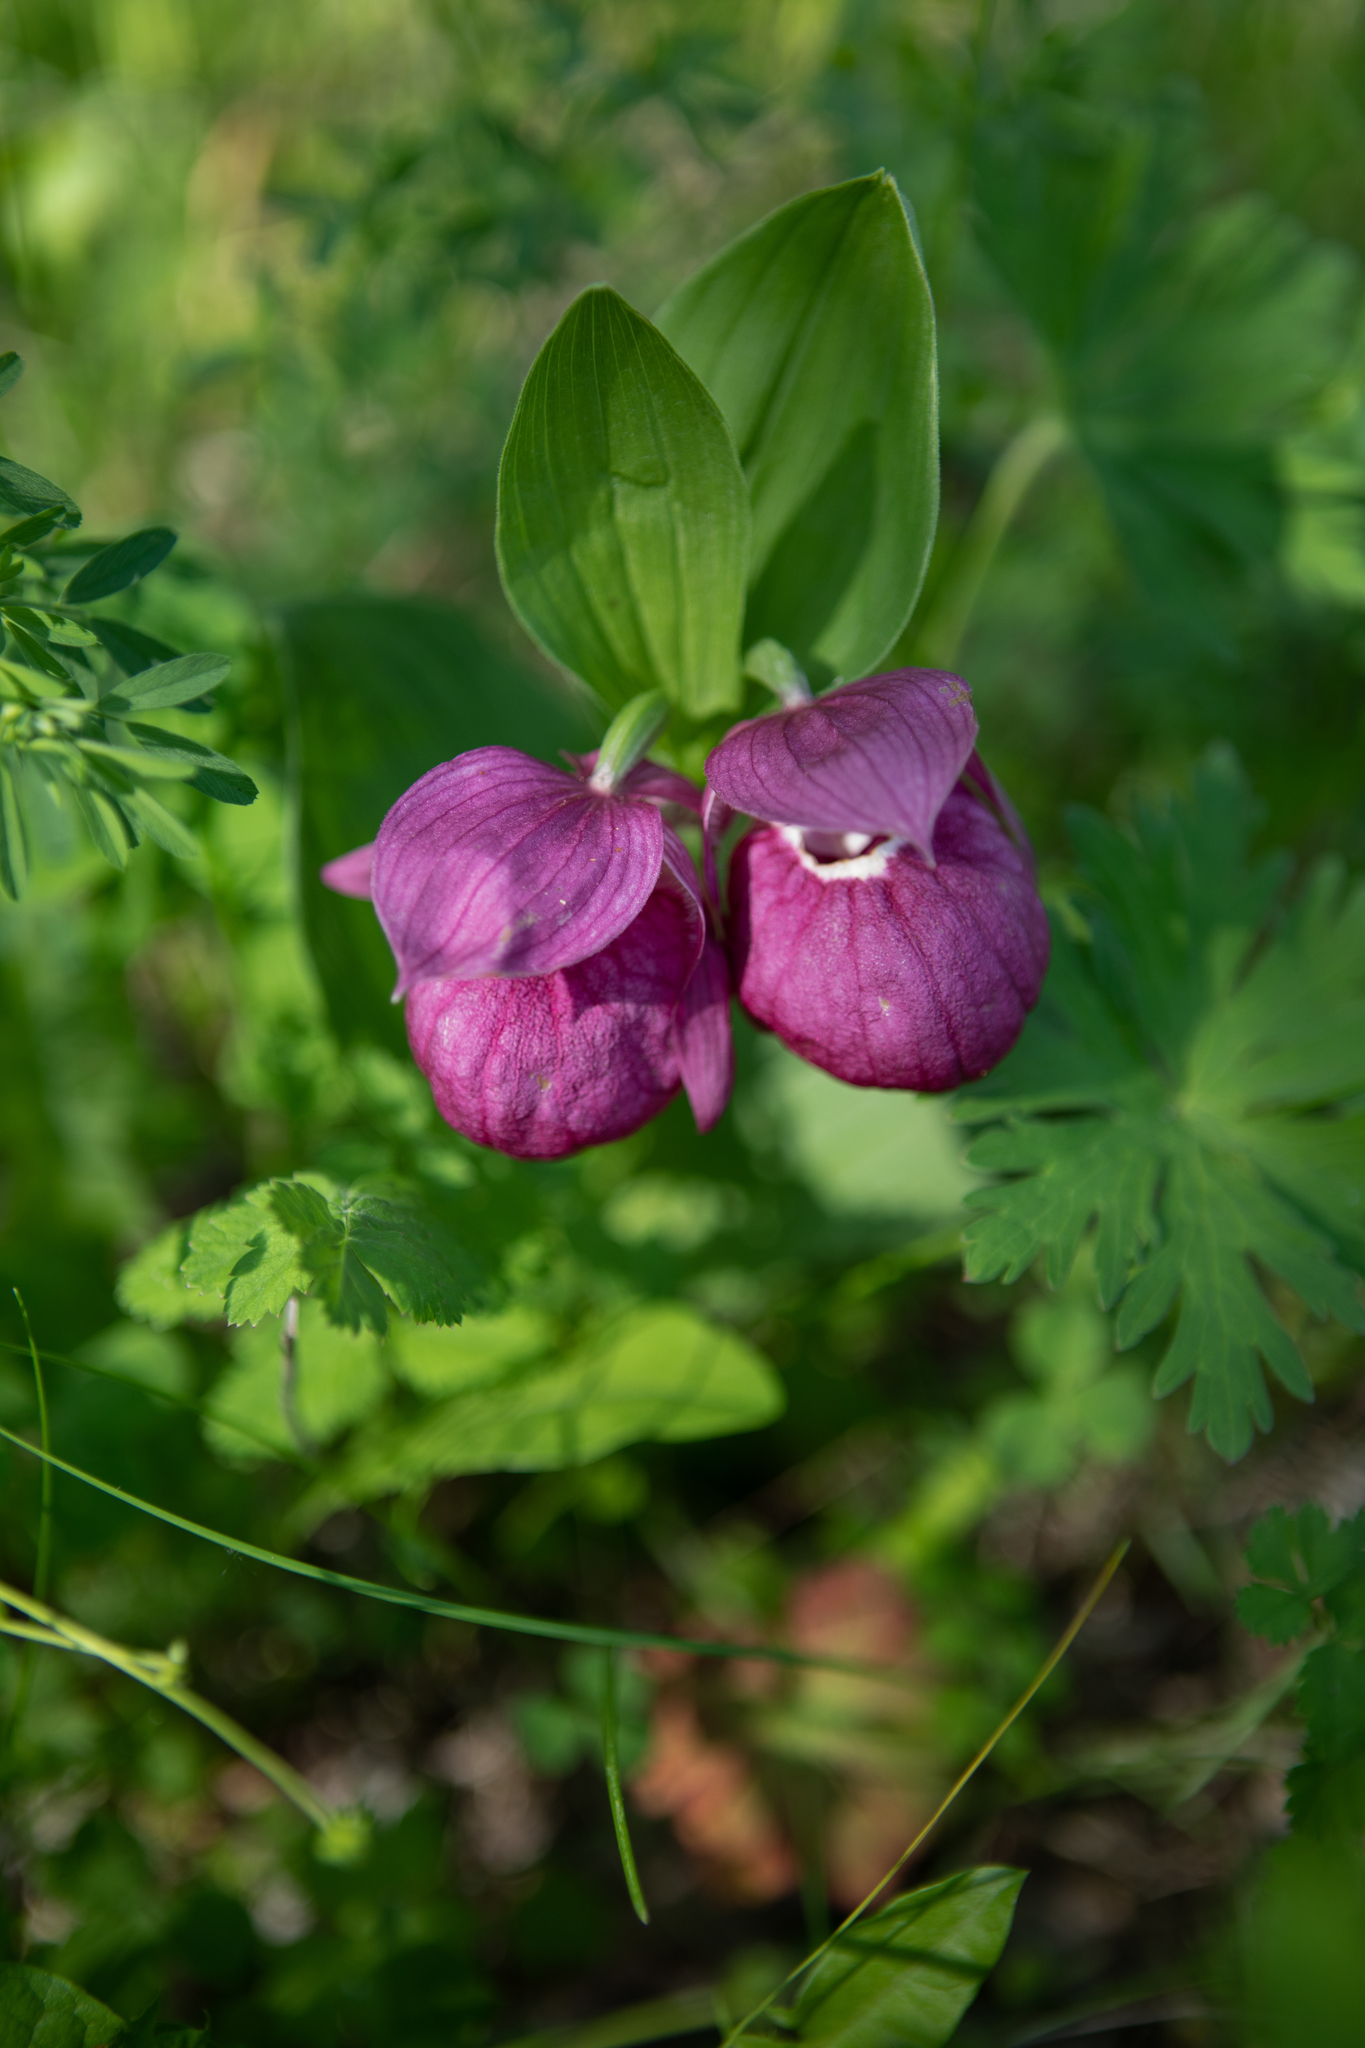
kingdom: Plantae
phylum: Tracheophyta
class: Liliopsida
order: Asparagales
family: Orchidaceae
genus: Cypripedium
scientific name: Cypripedium macranthos
